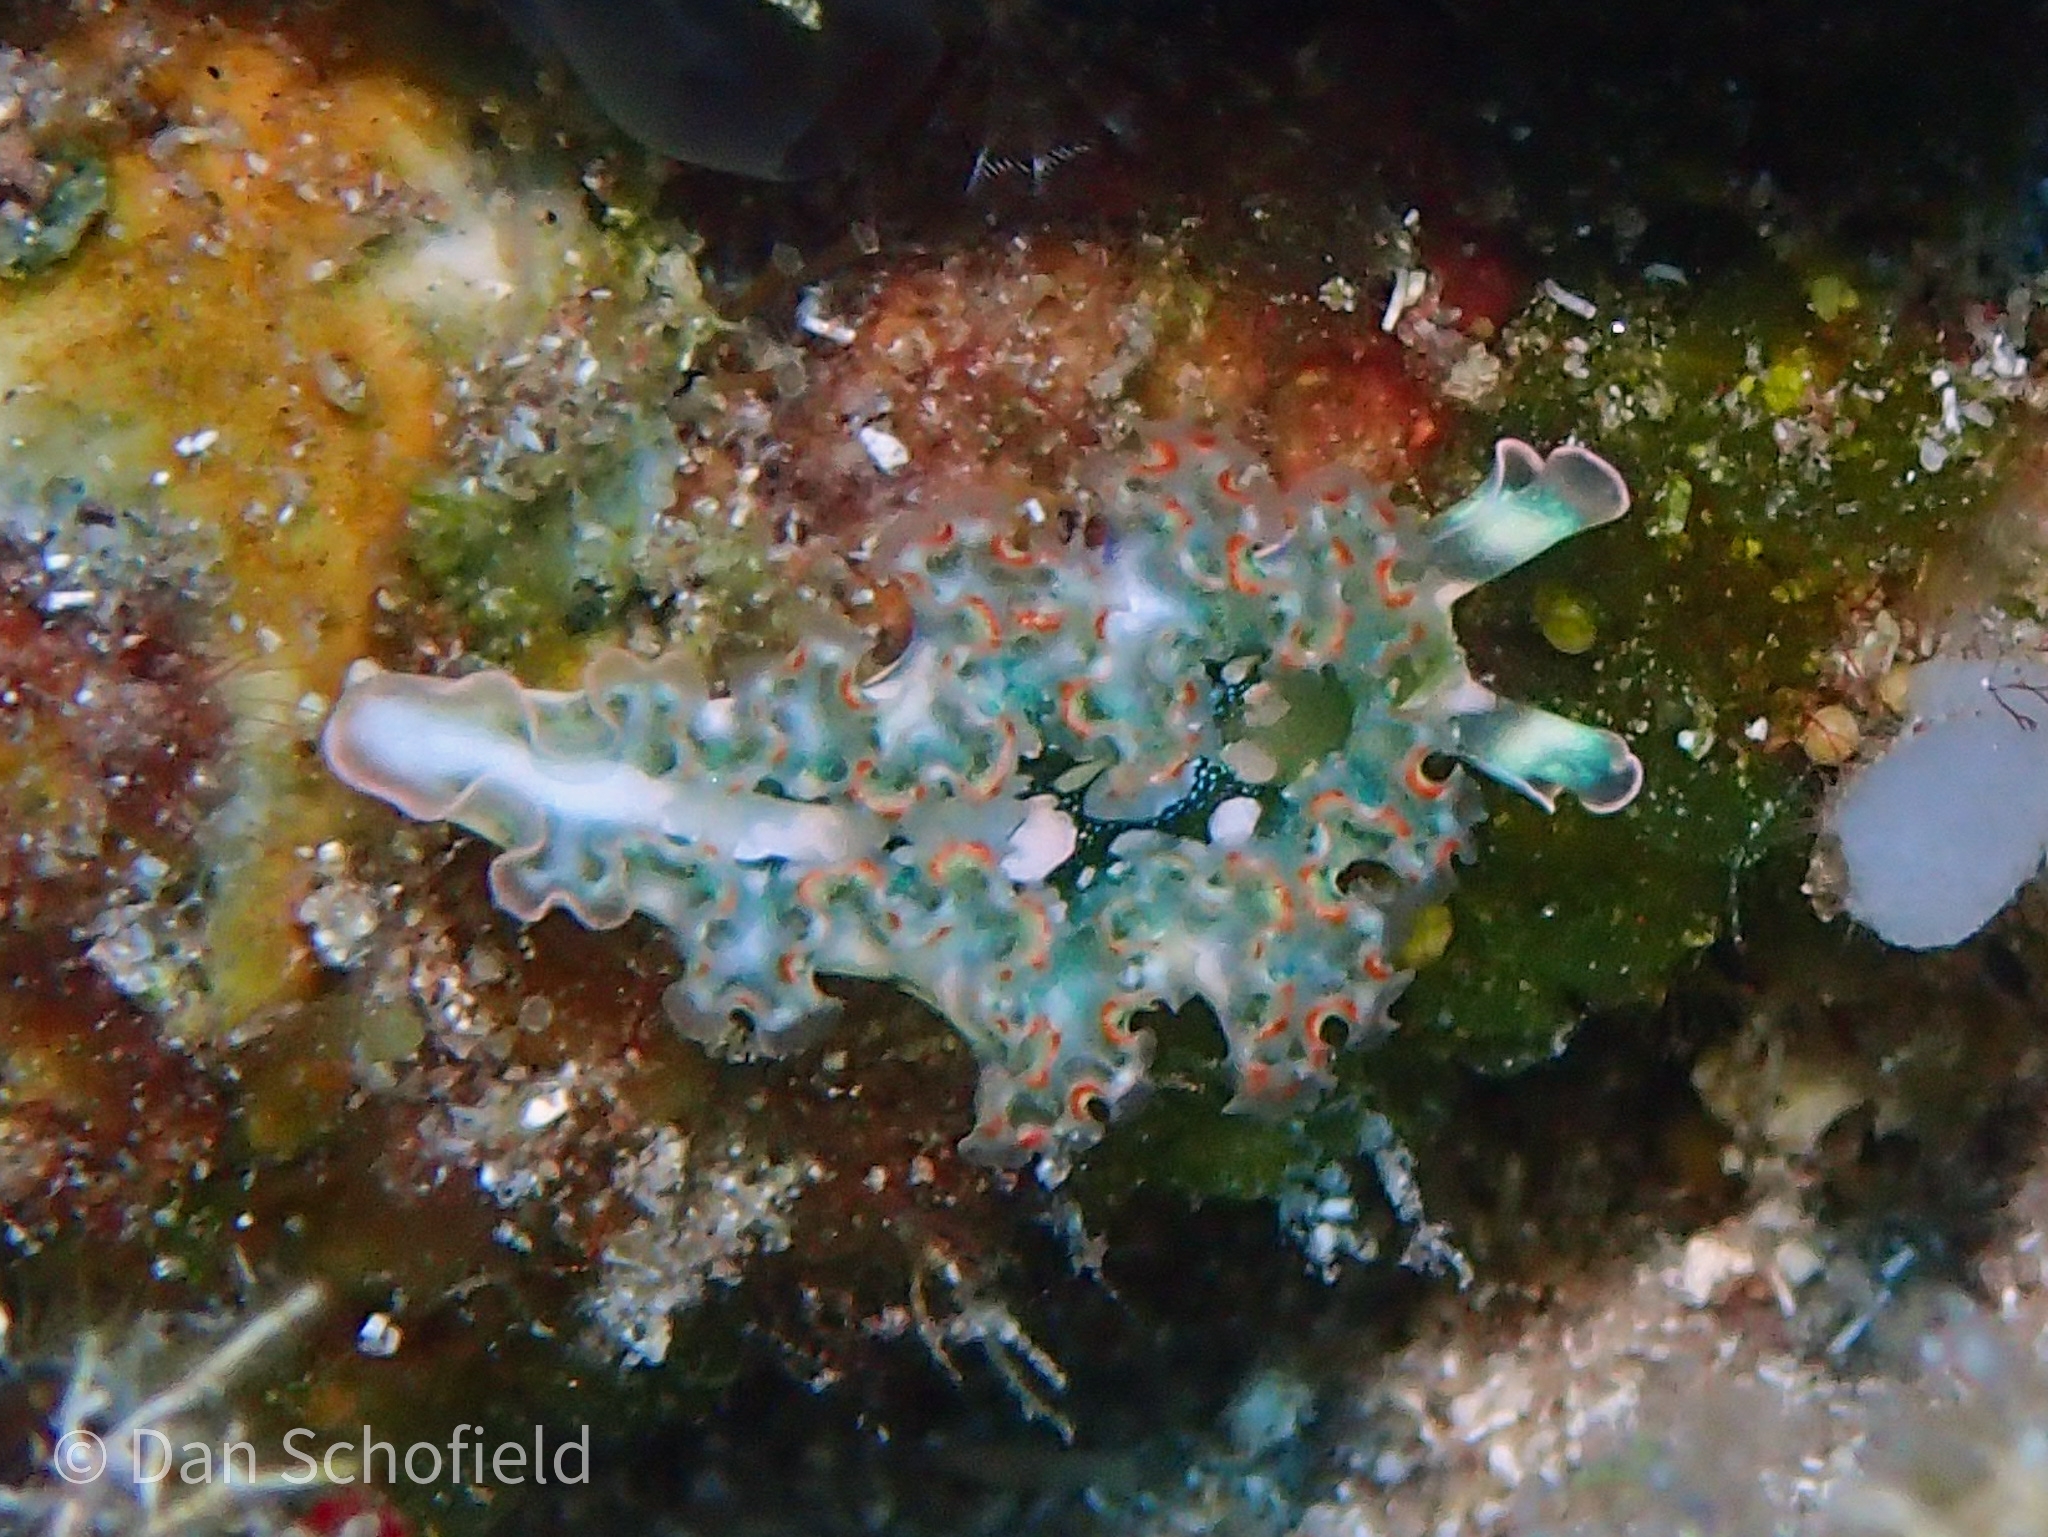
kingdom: Animalia
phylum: Mollusca
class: Gastropoda
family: Plakobranchidae
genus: Elysia
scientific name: Elysia crispata
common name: Lettuce slug
